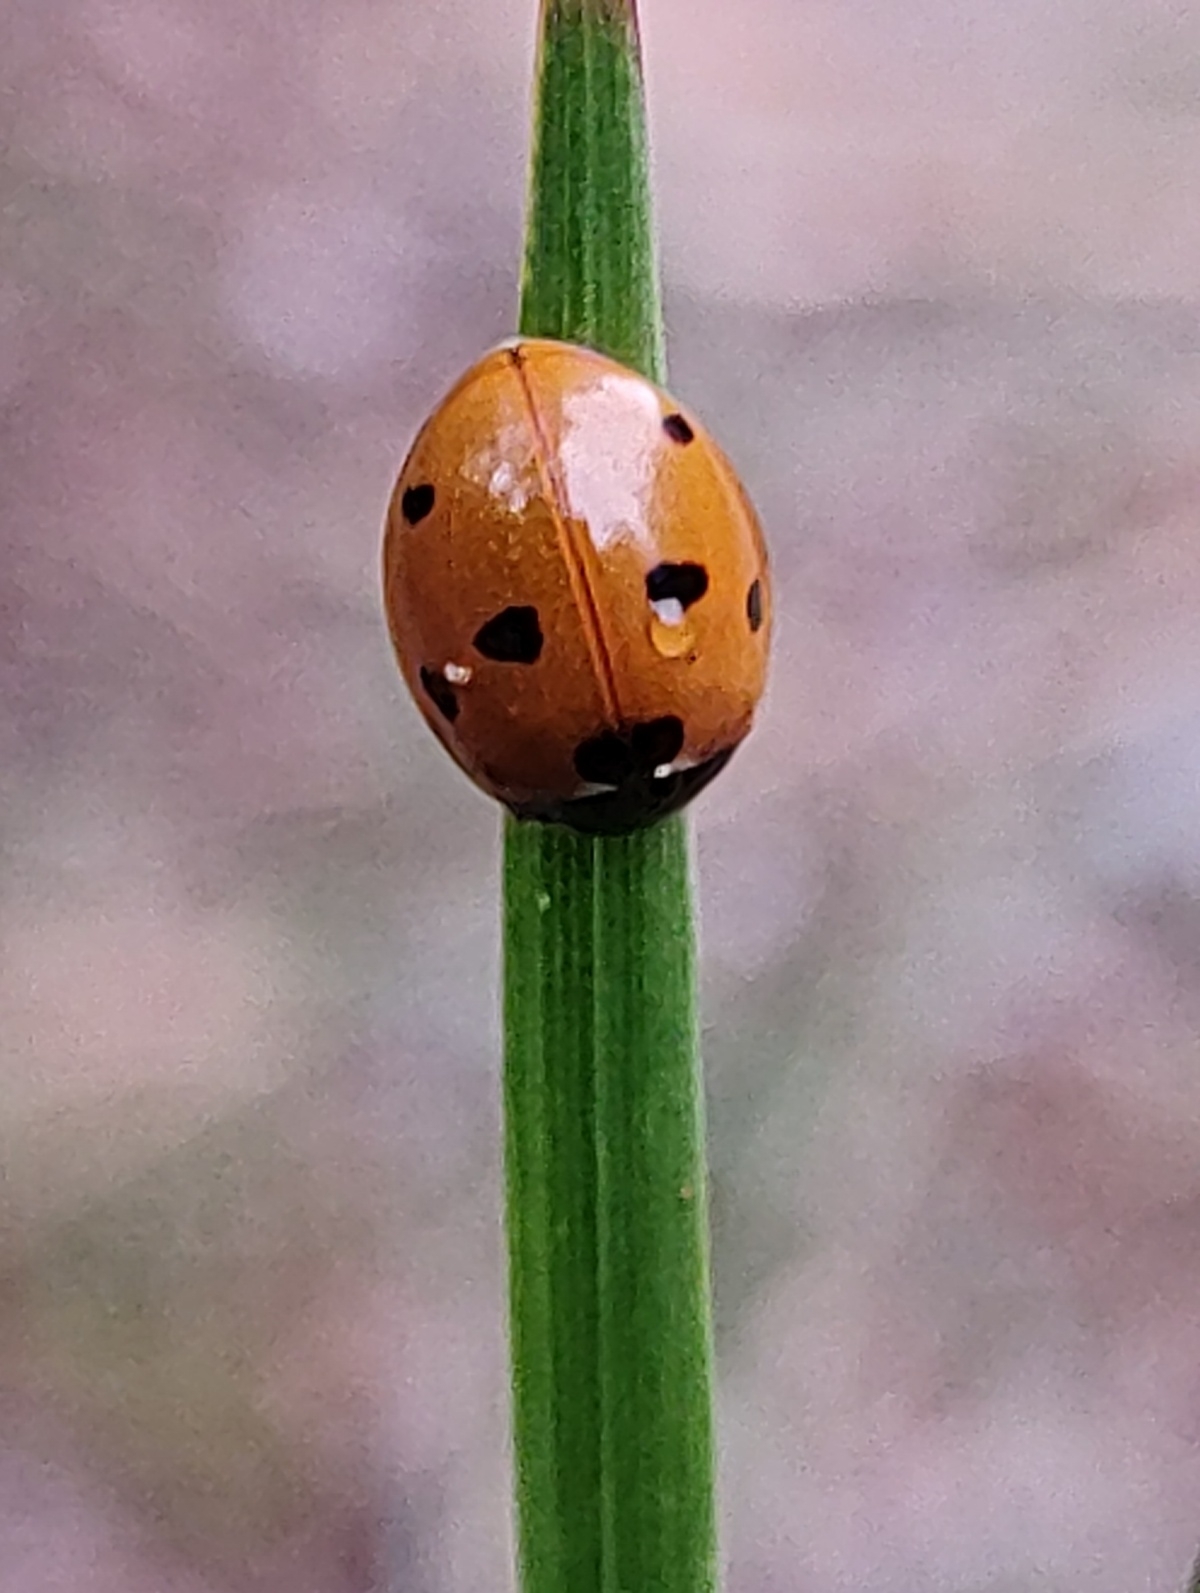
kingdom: Animalia
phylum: Arthropoda
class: Insecta
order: Coleoptera
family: Coccinellidae
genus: Coccinella
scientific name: Coccinella septempunctata
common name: Sevenspotted lady beetle
